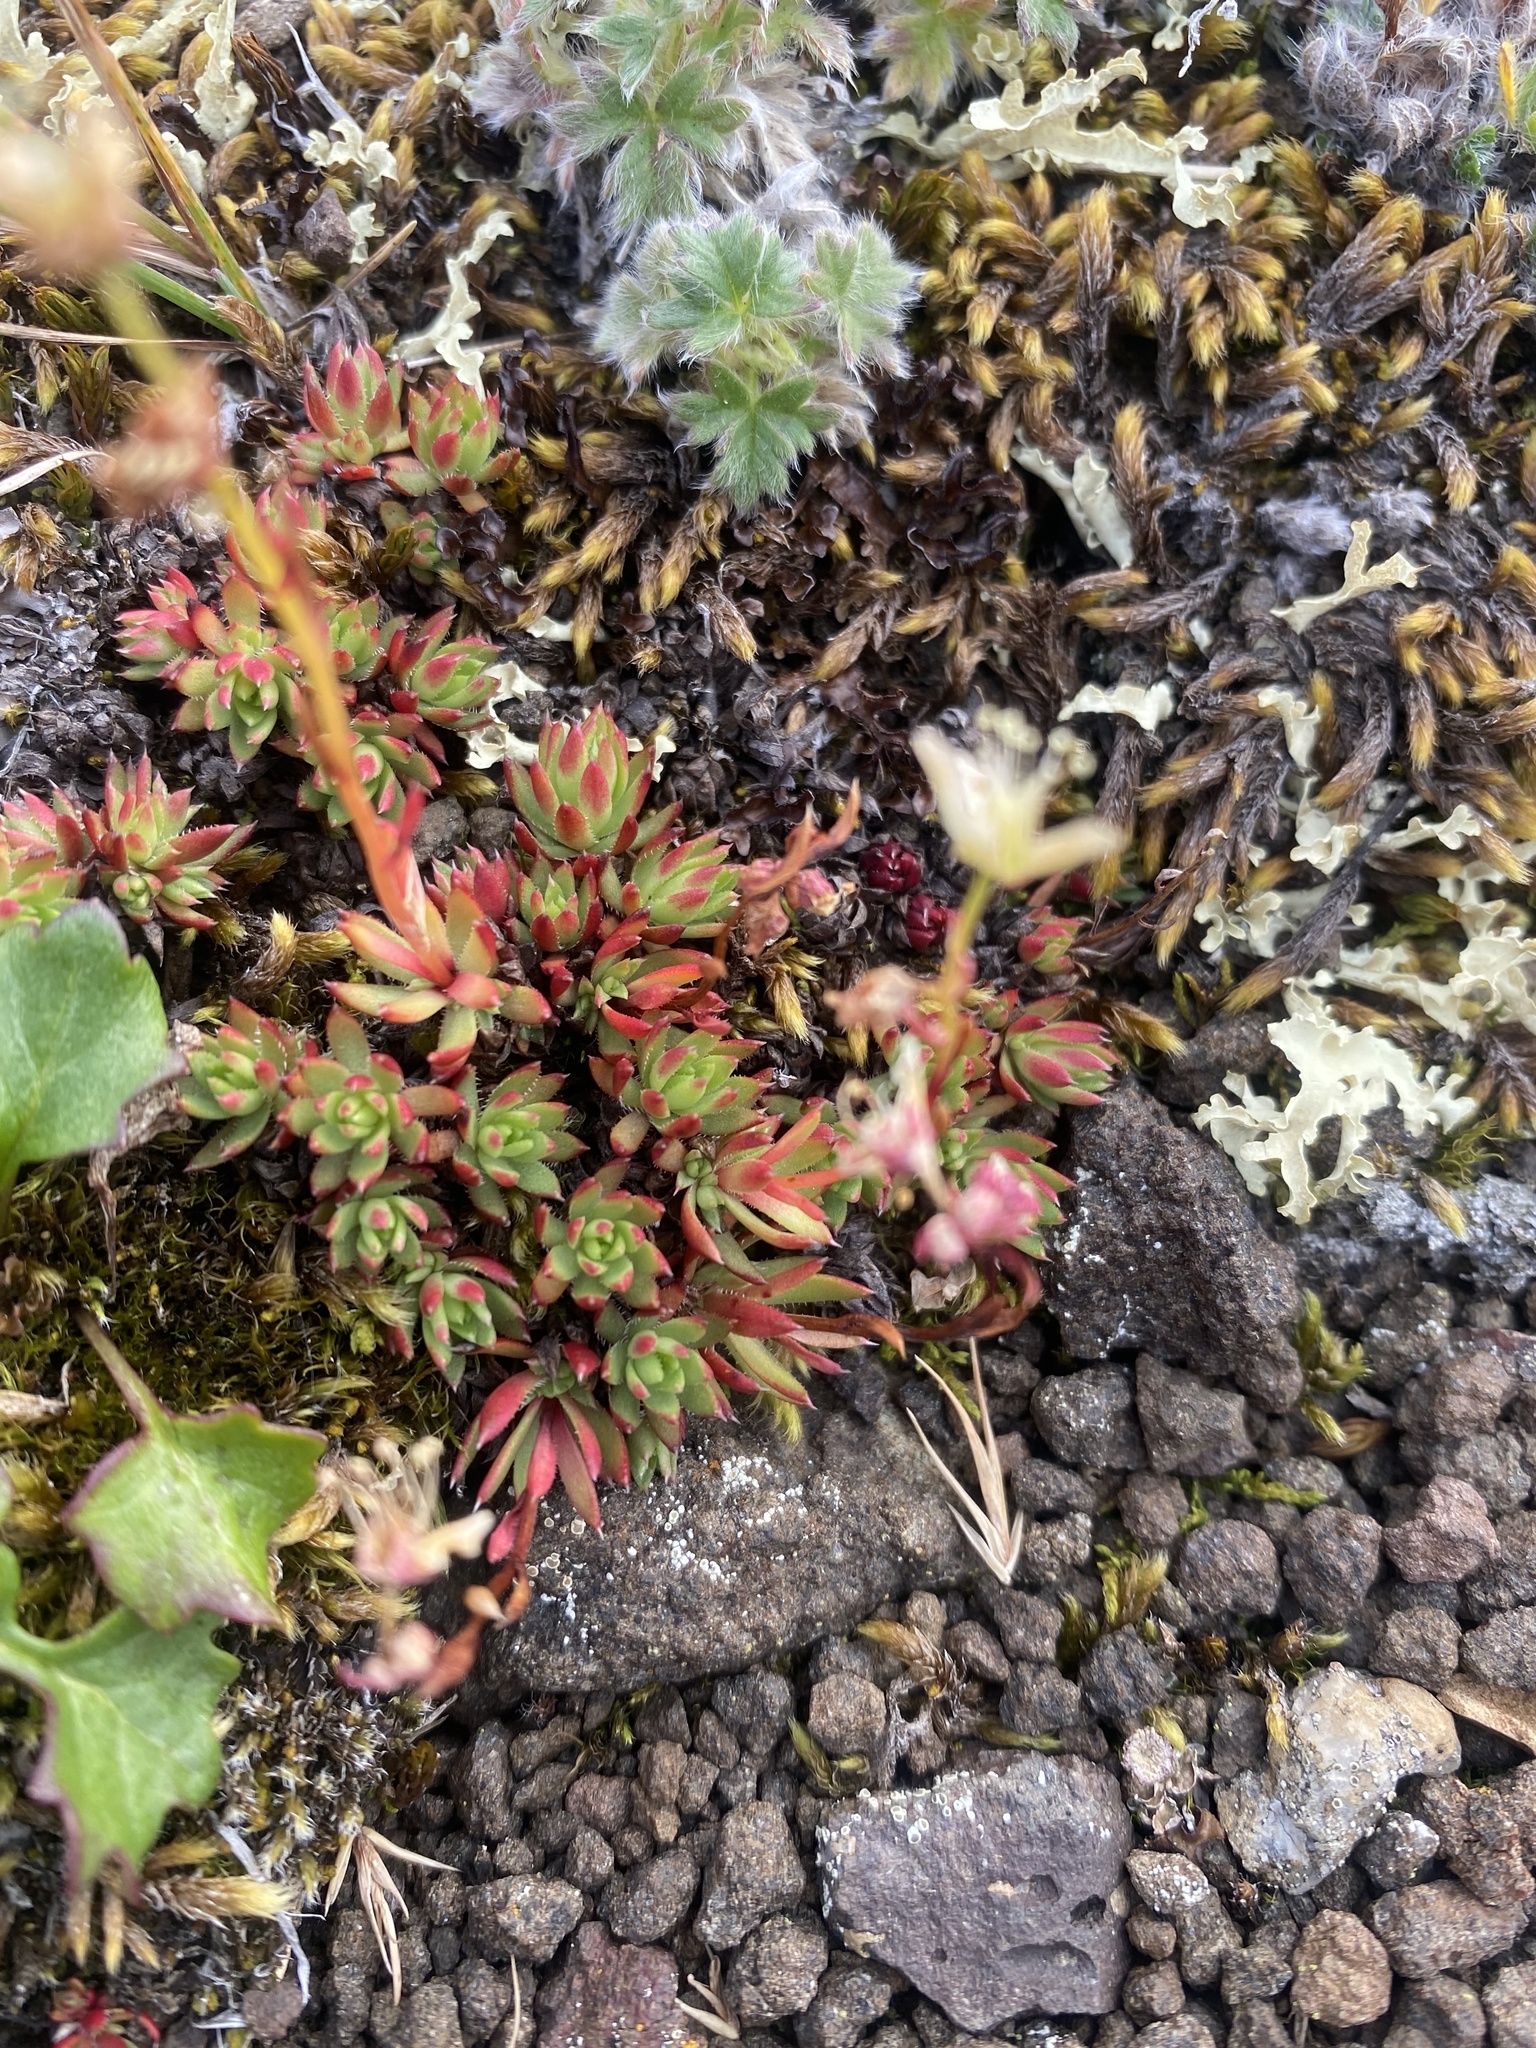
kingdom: Plantae
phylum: Tracheophyta
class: Magnoliopsida
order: Saxifragales
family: Saxifragaceae
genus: Saxifraga
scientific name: Saxifraga
